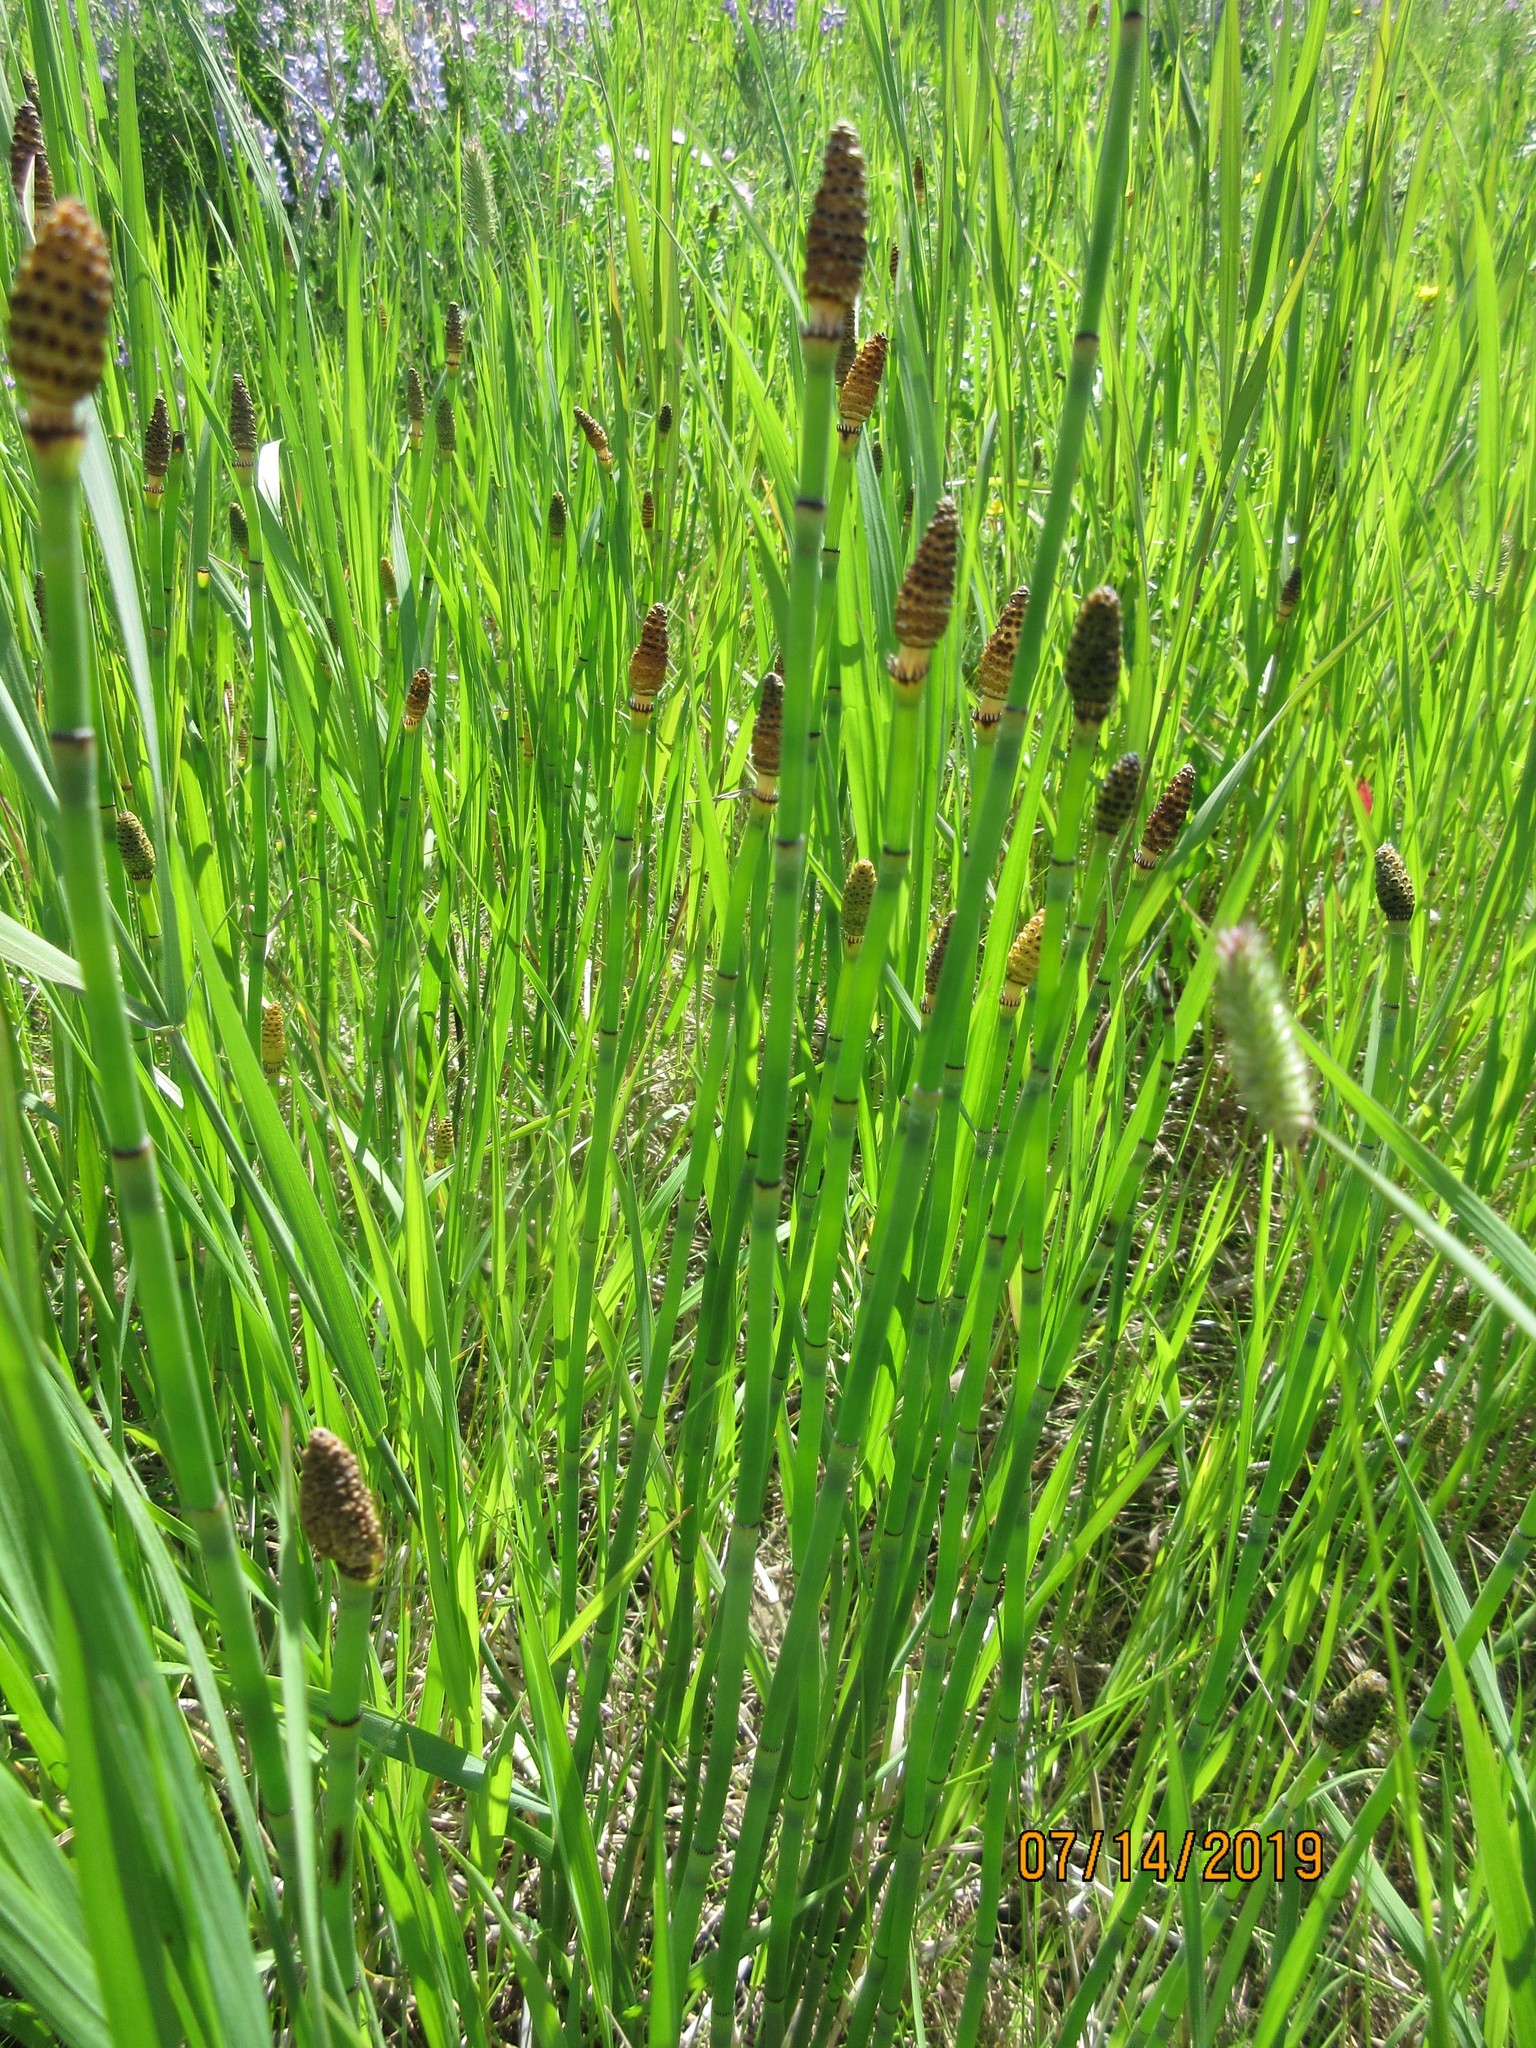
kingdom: Plantae
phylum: Tracheophyta
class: Polypodiopsida
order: Equisetales
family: Equisetaceae
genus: Equisetum
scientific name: Equisetum laevigatum
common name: Smooth scouring-rush
